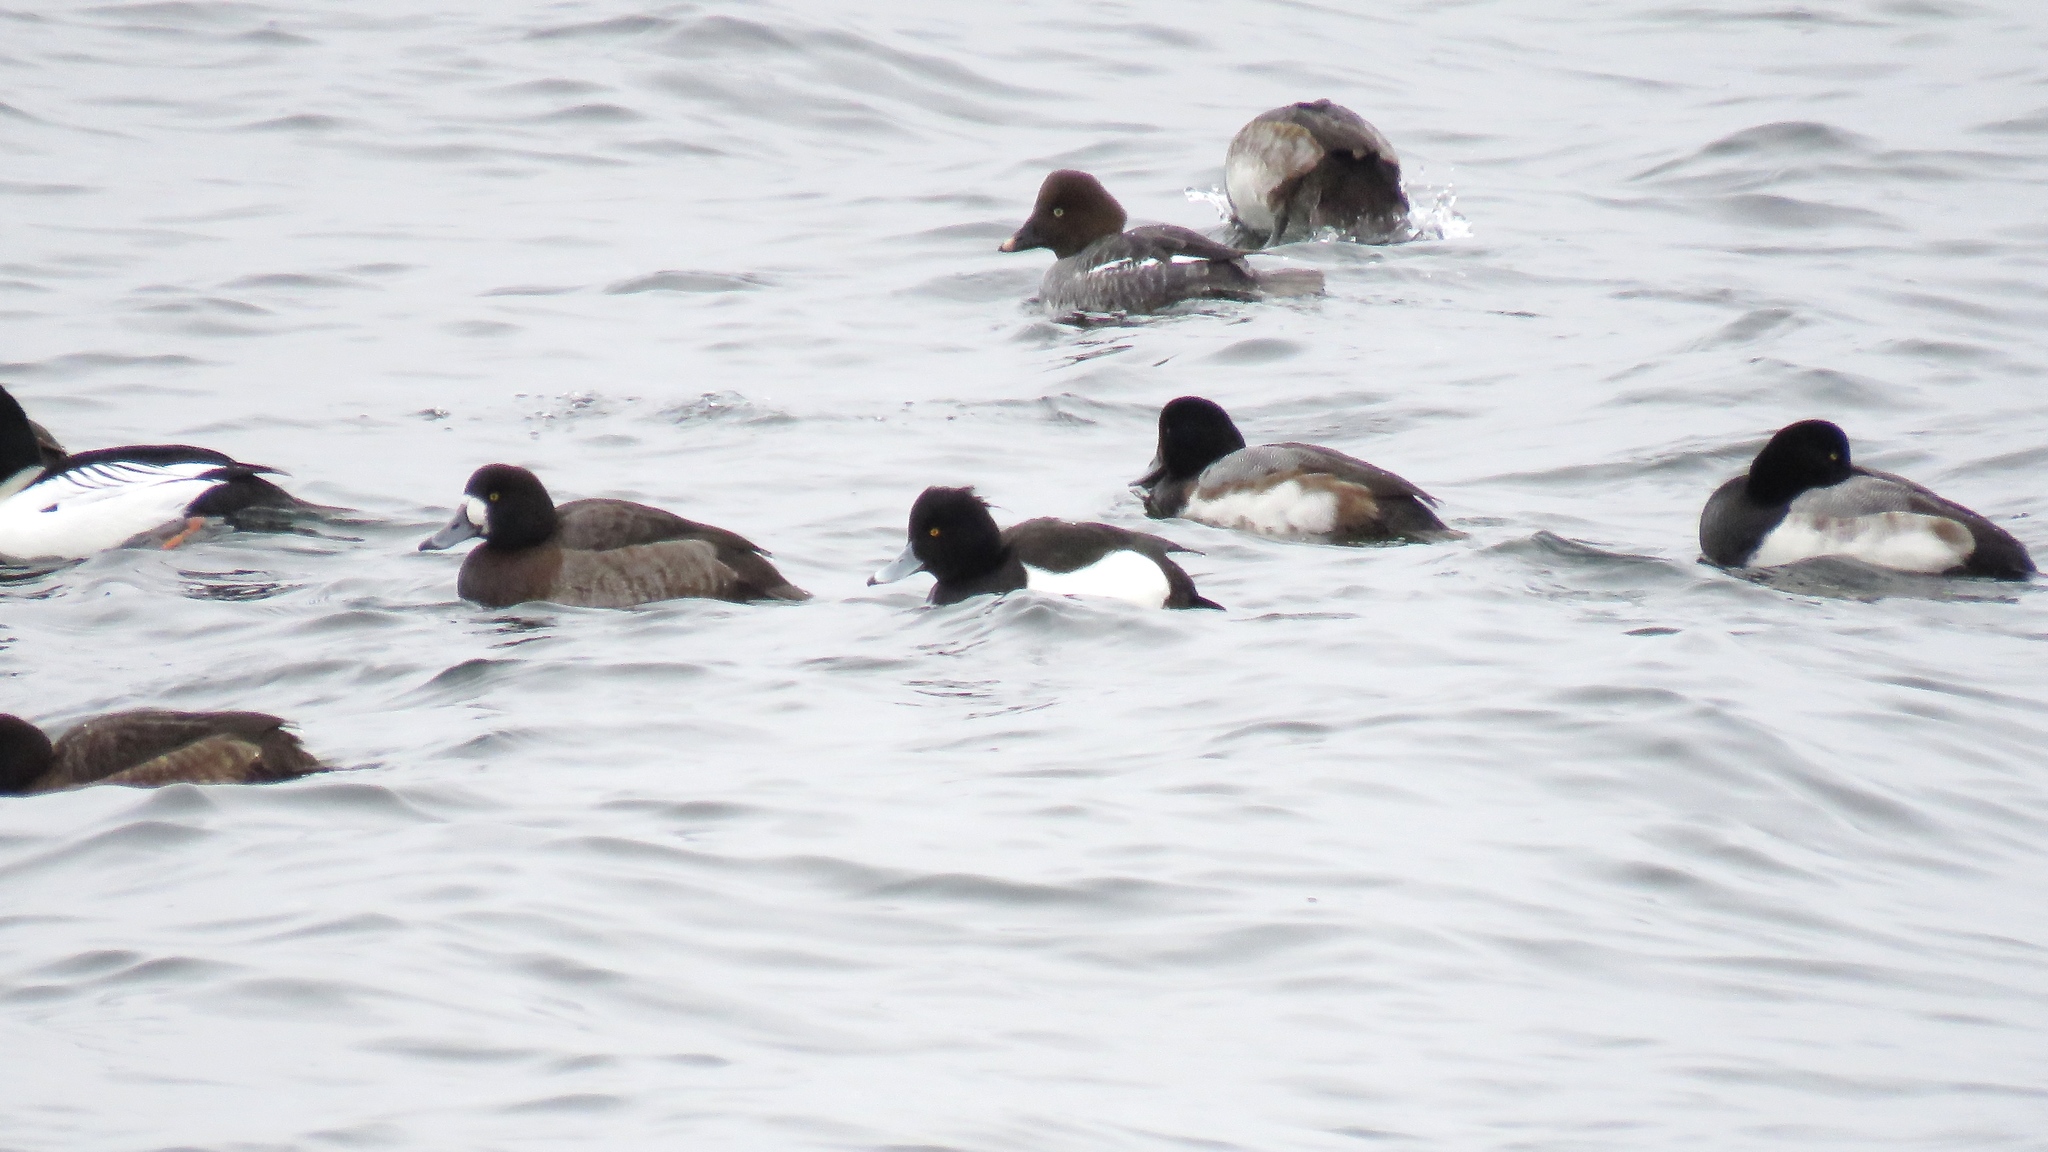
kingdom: Animalia
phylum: Chordata
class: Aves
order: Anseriformes
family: Anatidae
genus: Aythya
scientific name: Aythya fuligula
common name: Tufted duck
